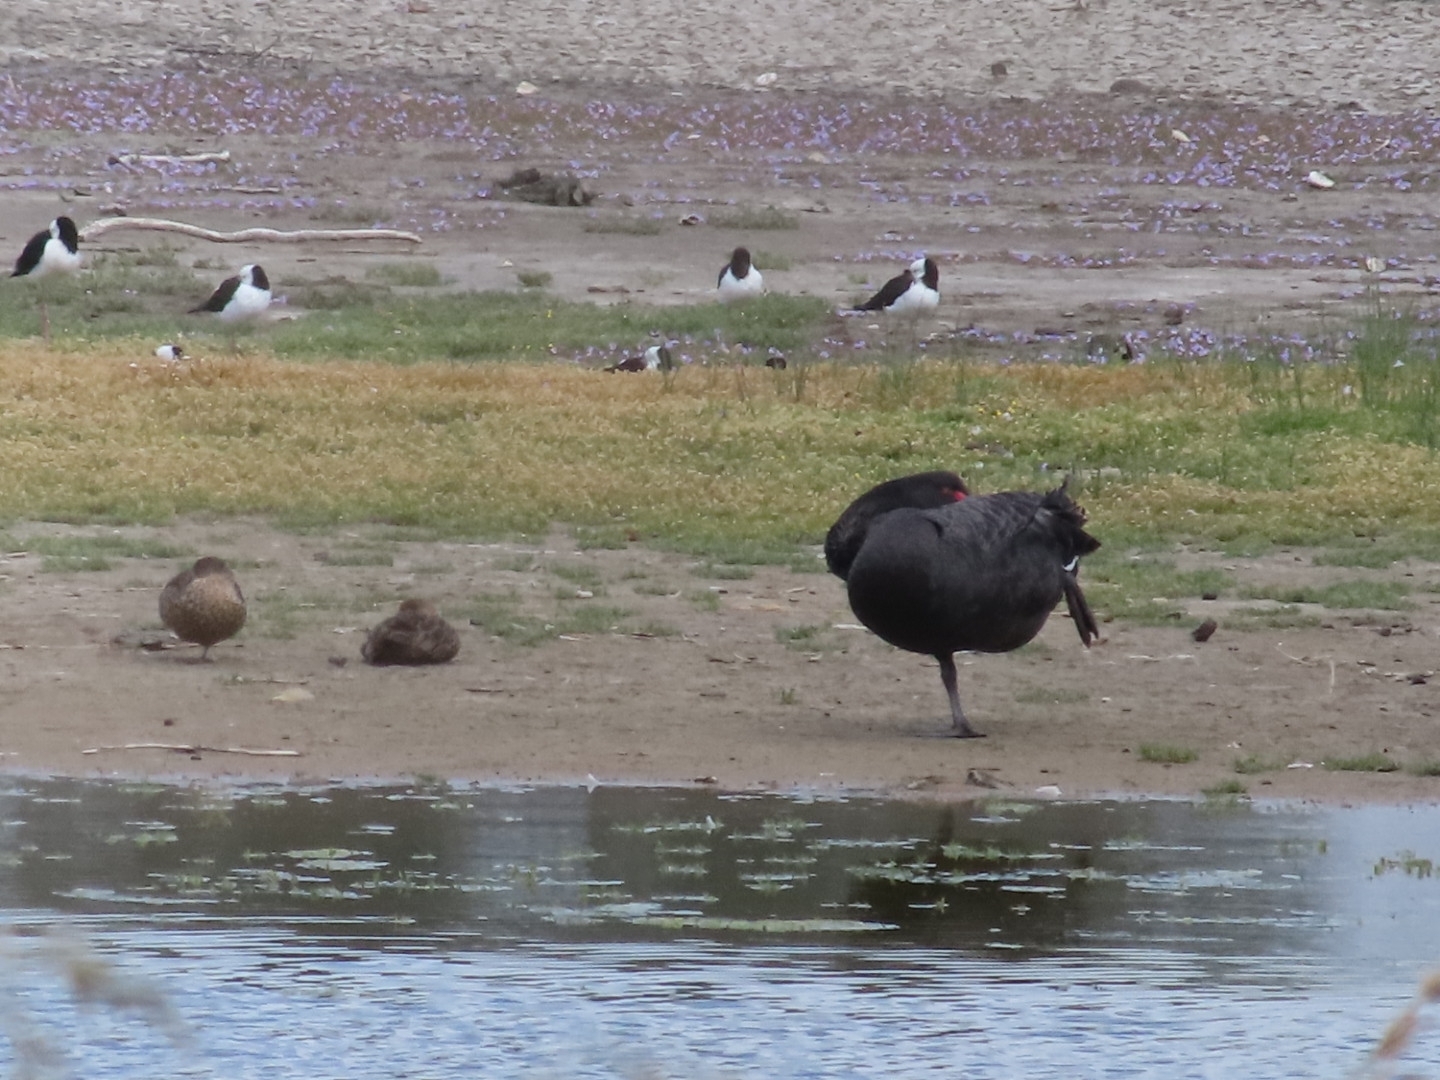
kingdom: Animalia
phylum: Chordata
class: Aves
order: Anseriformes
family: Anatidae
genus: Cygnus
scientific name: Cygnus atratus
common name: Black swan
